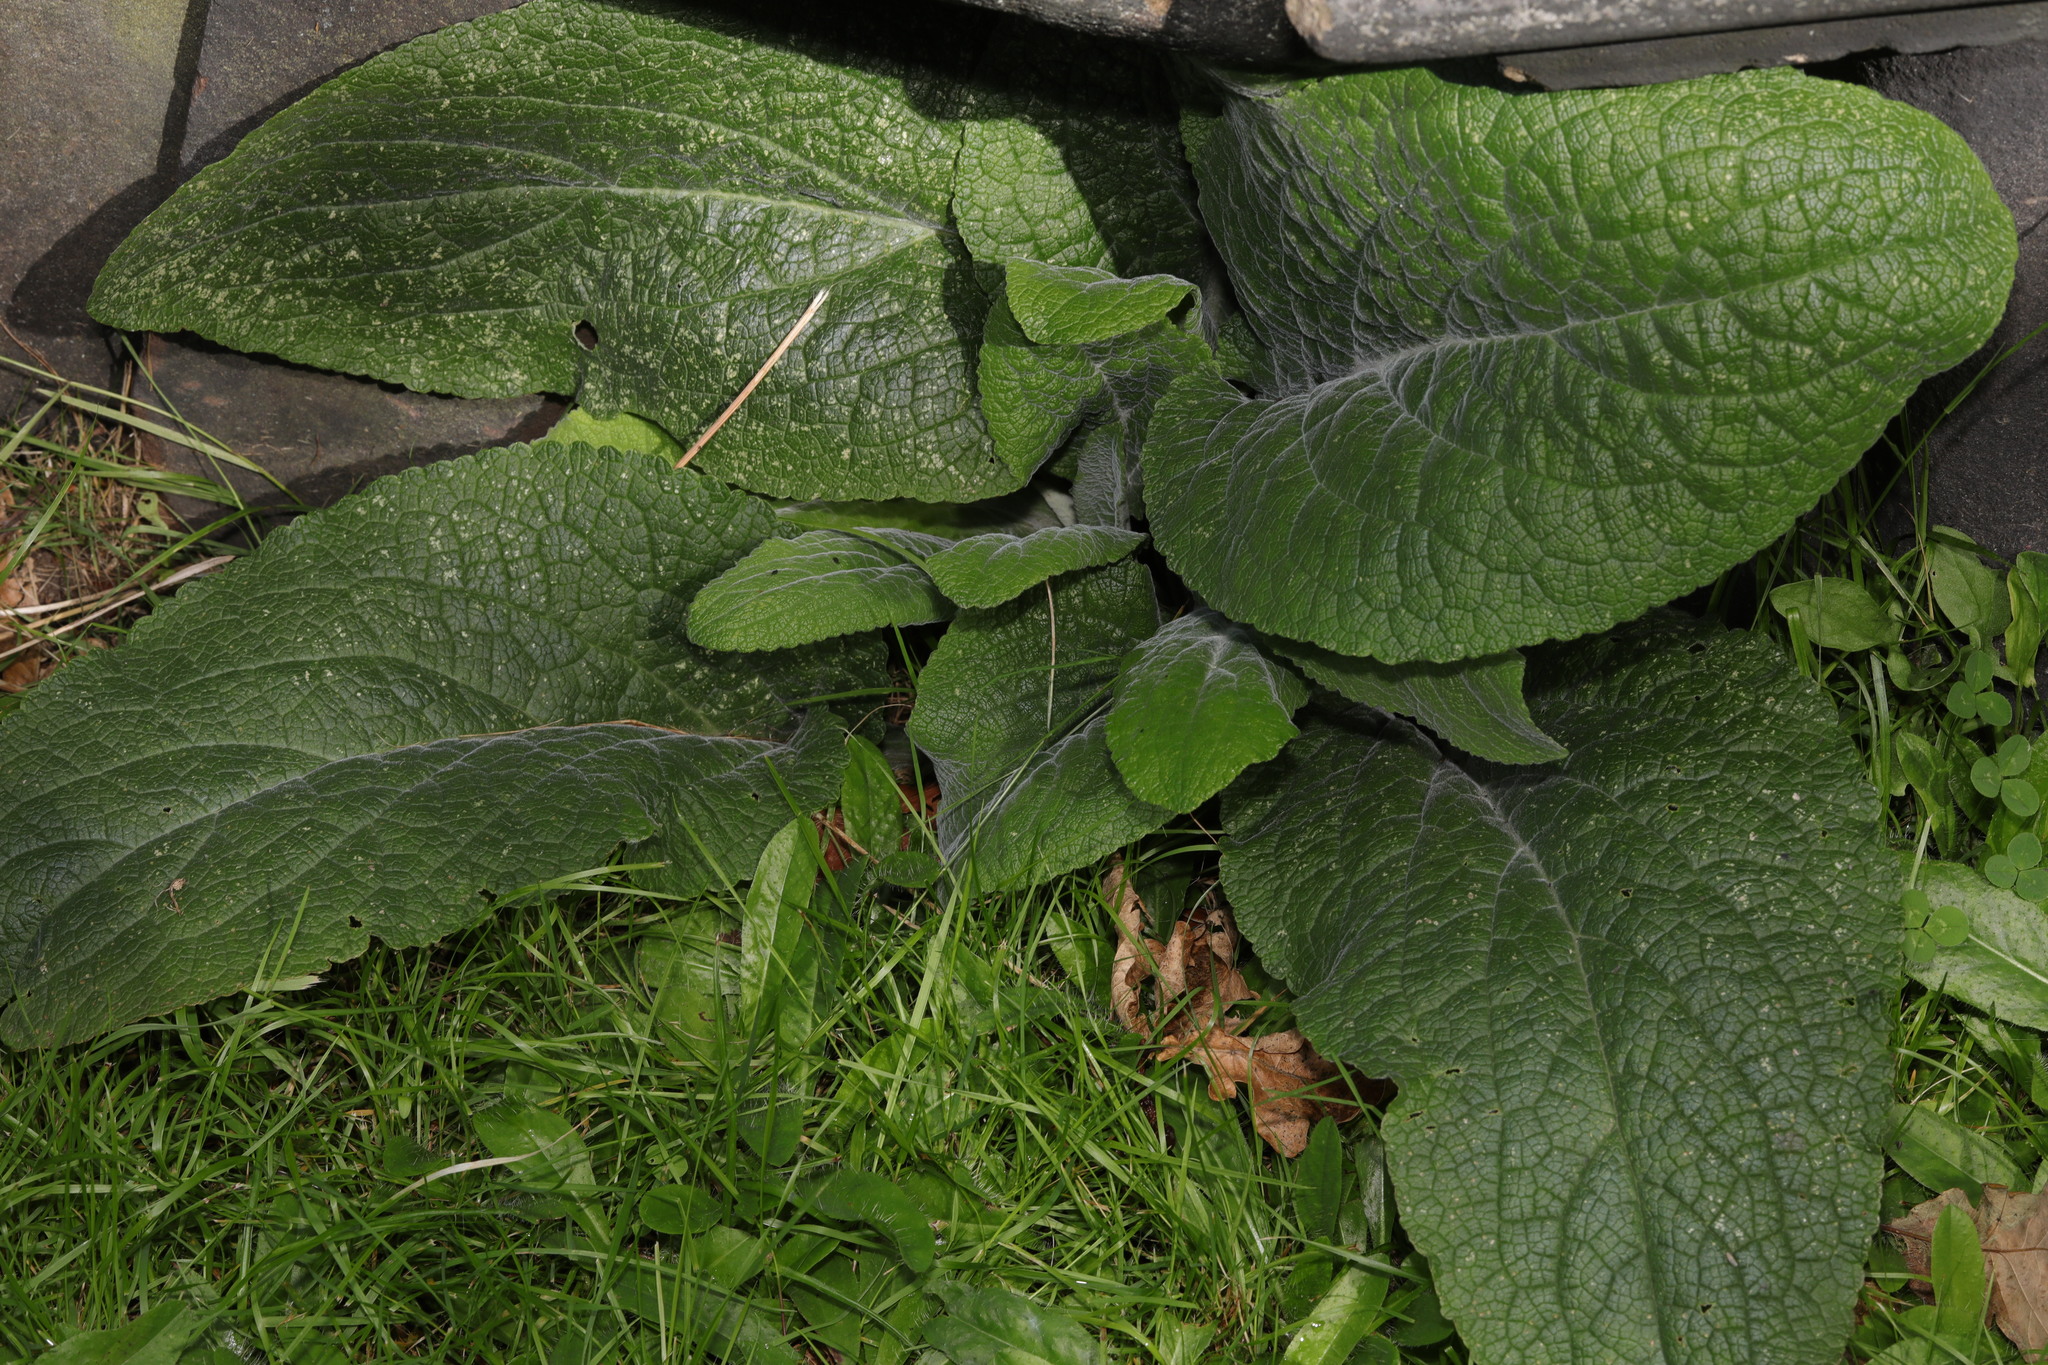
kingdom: Plantae
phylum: Tracheophyta
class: Magnoliopsida
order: Lamiales
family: Plantaginaceae
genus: Digitalis
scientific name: Digitalis purpurea
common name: Foxglove
